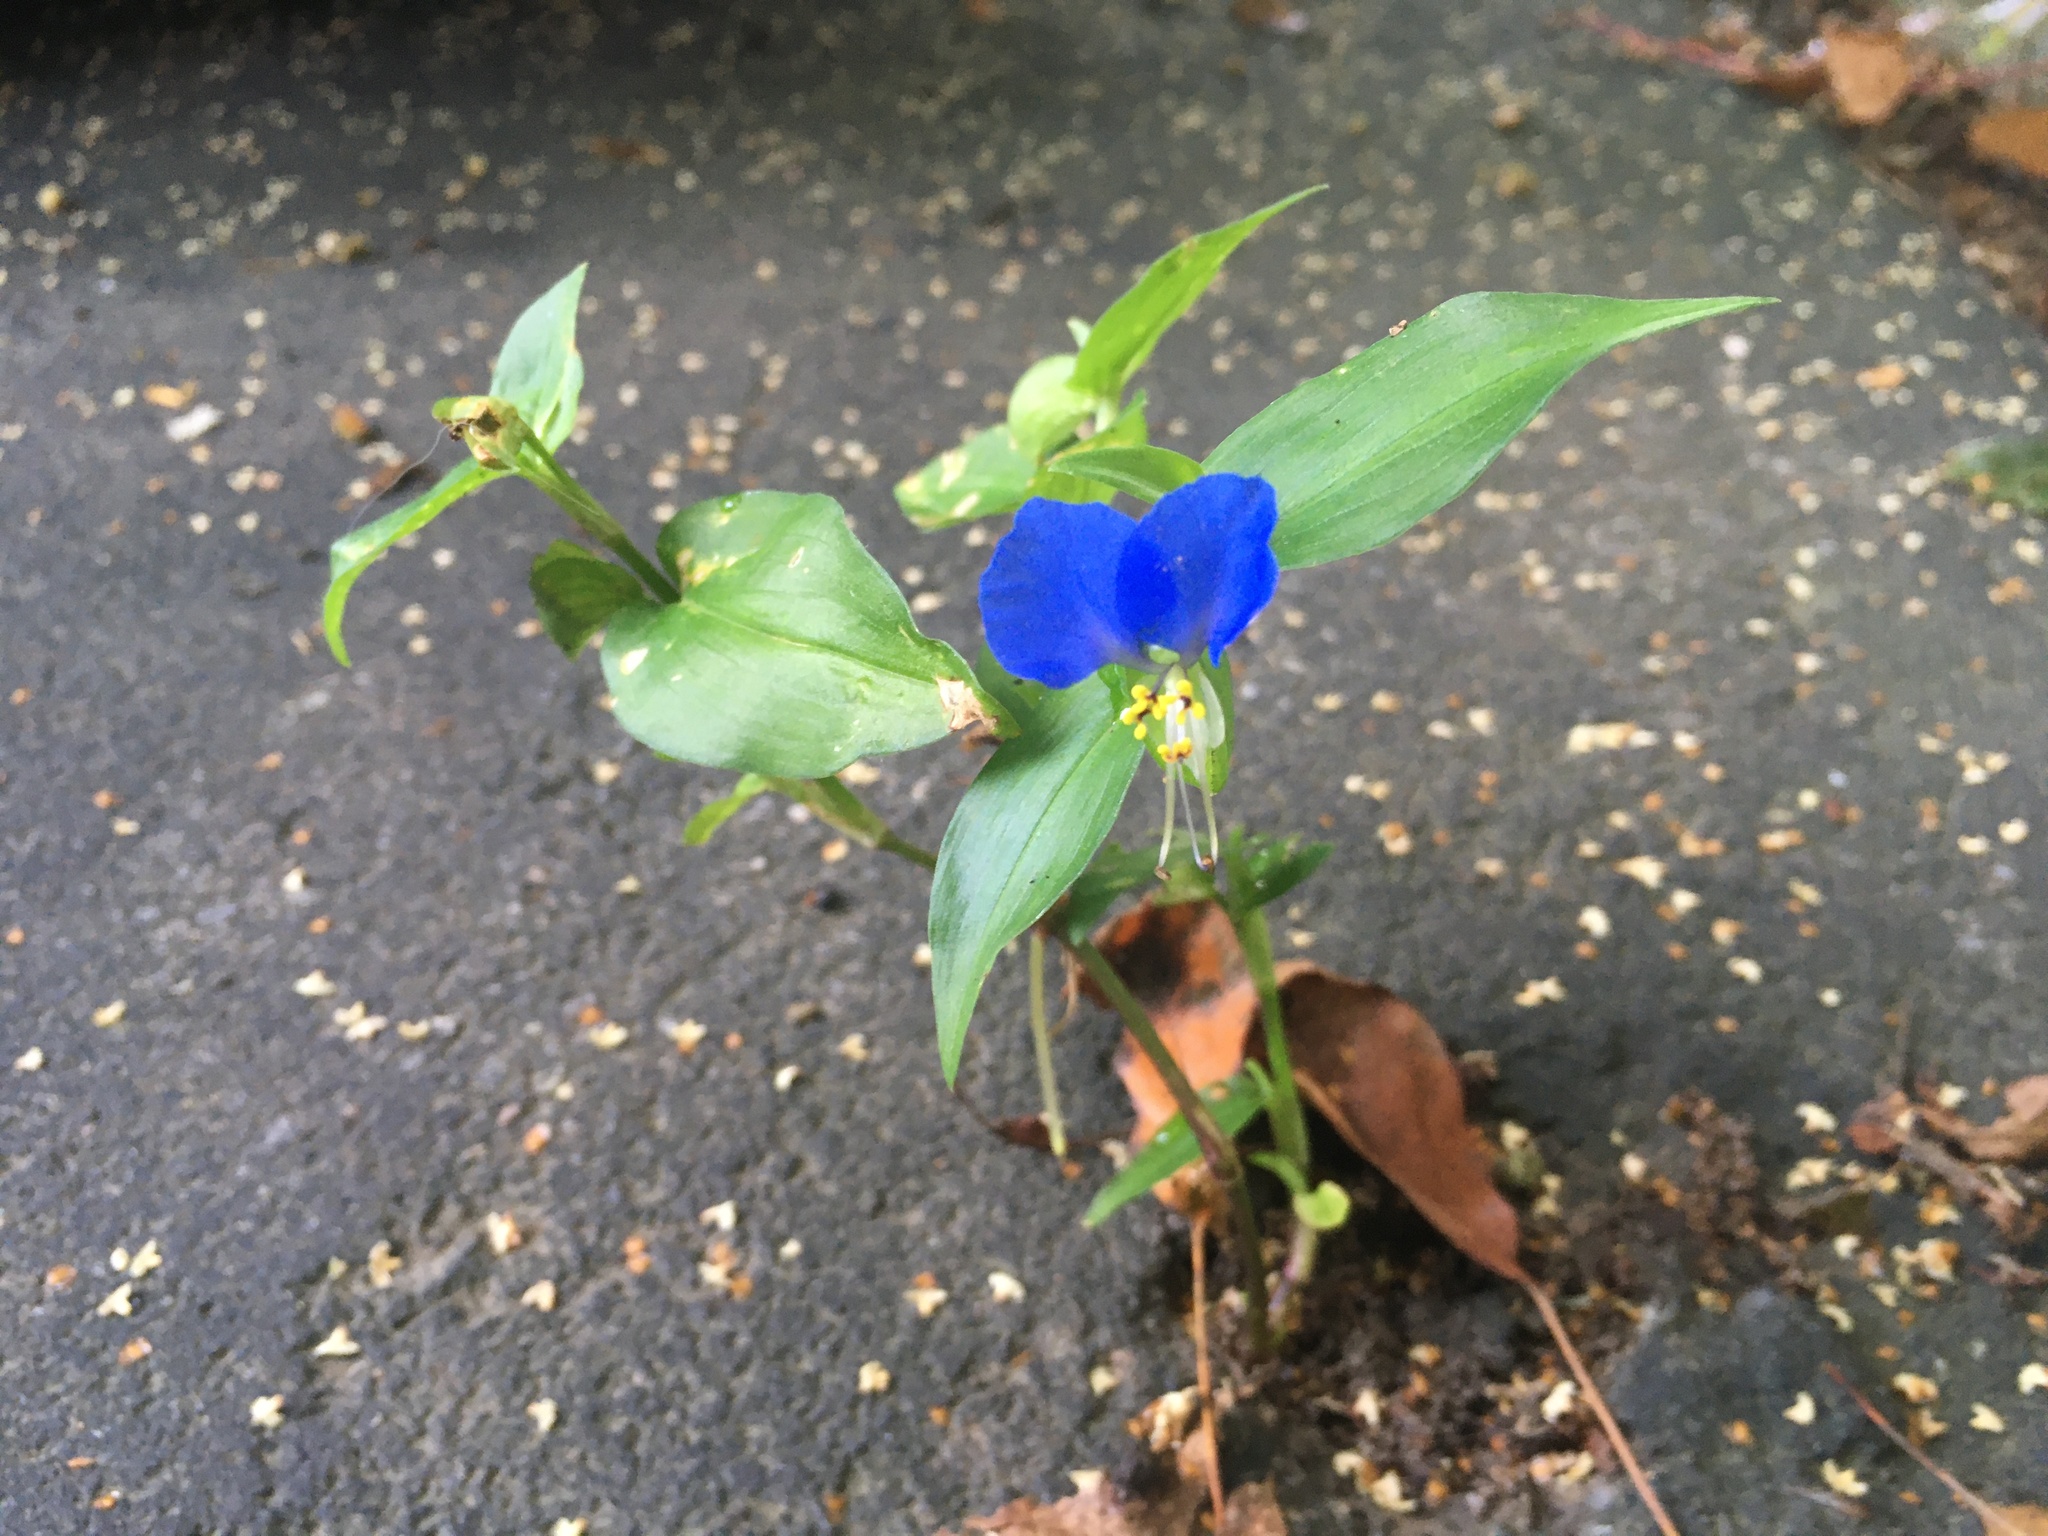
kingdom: Plantae
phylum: Tracheophyta
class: Liliopsida
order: Commelinales
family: Commelinaceae
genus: Commelina
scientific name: Commelina communis
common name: Asiatic dayflower
